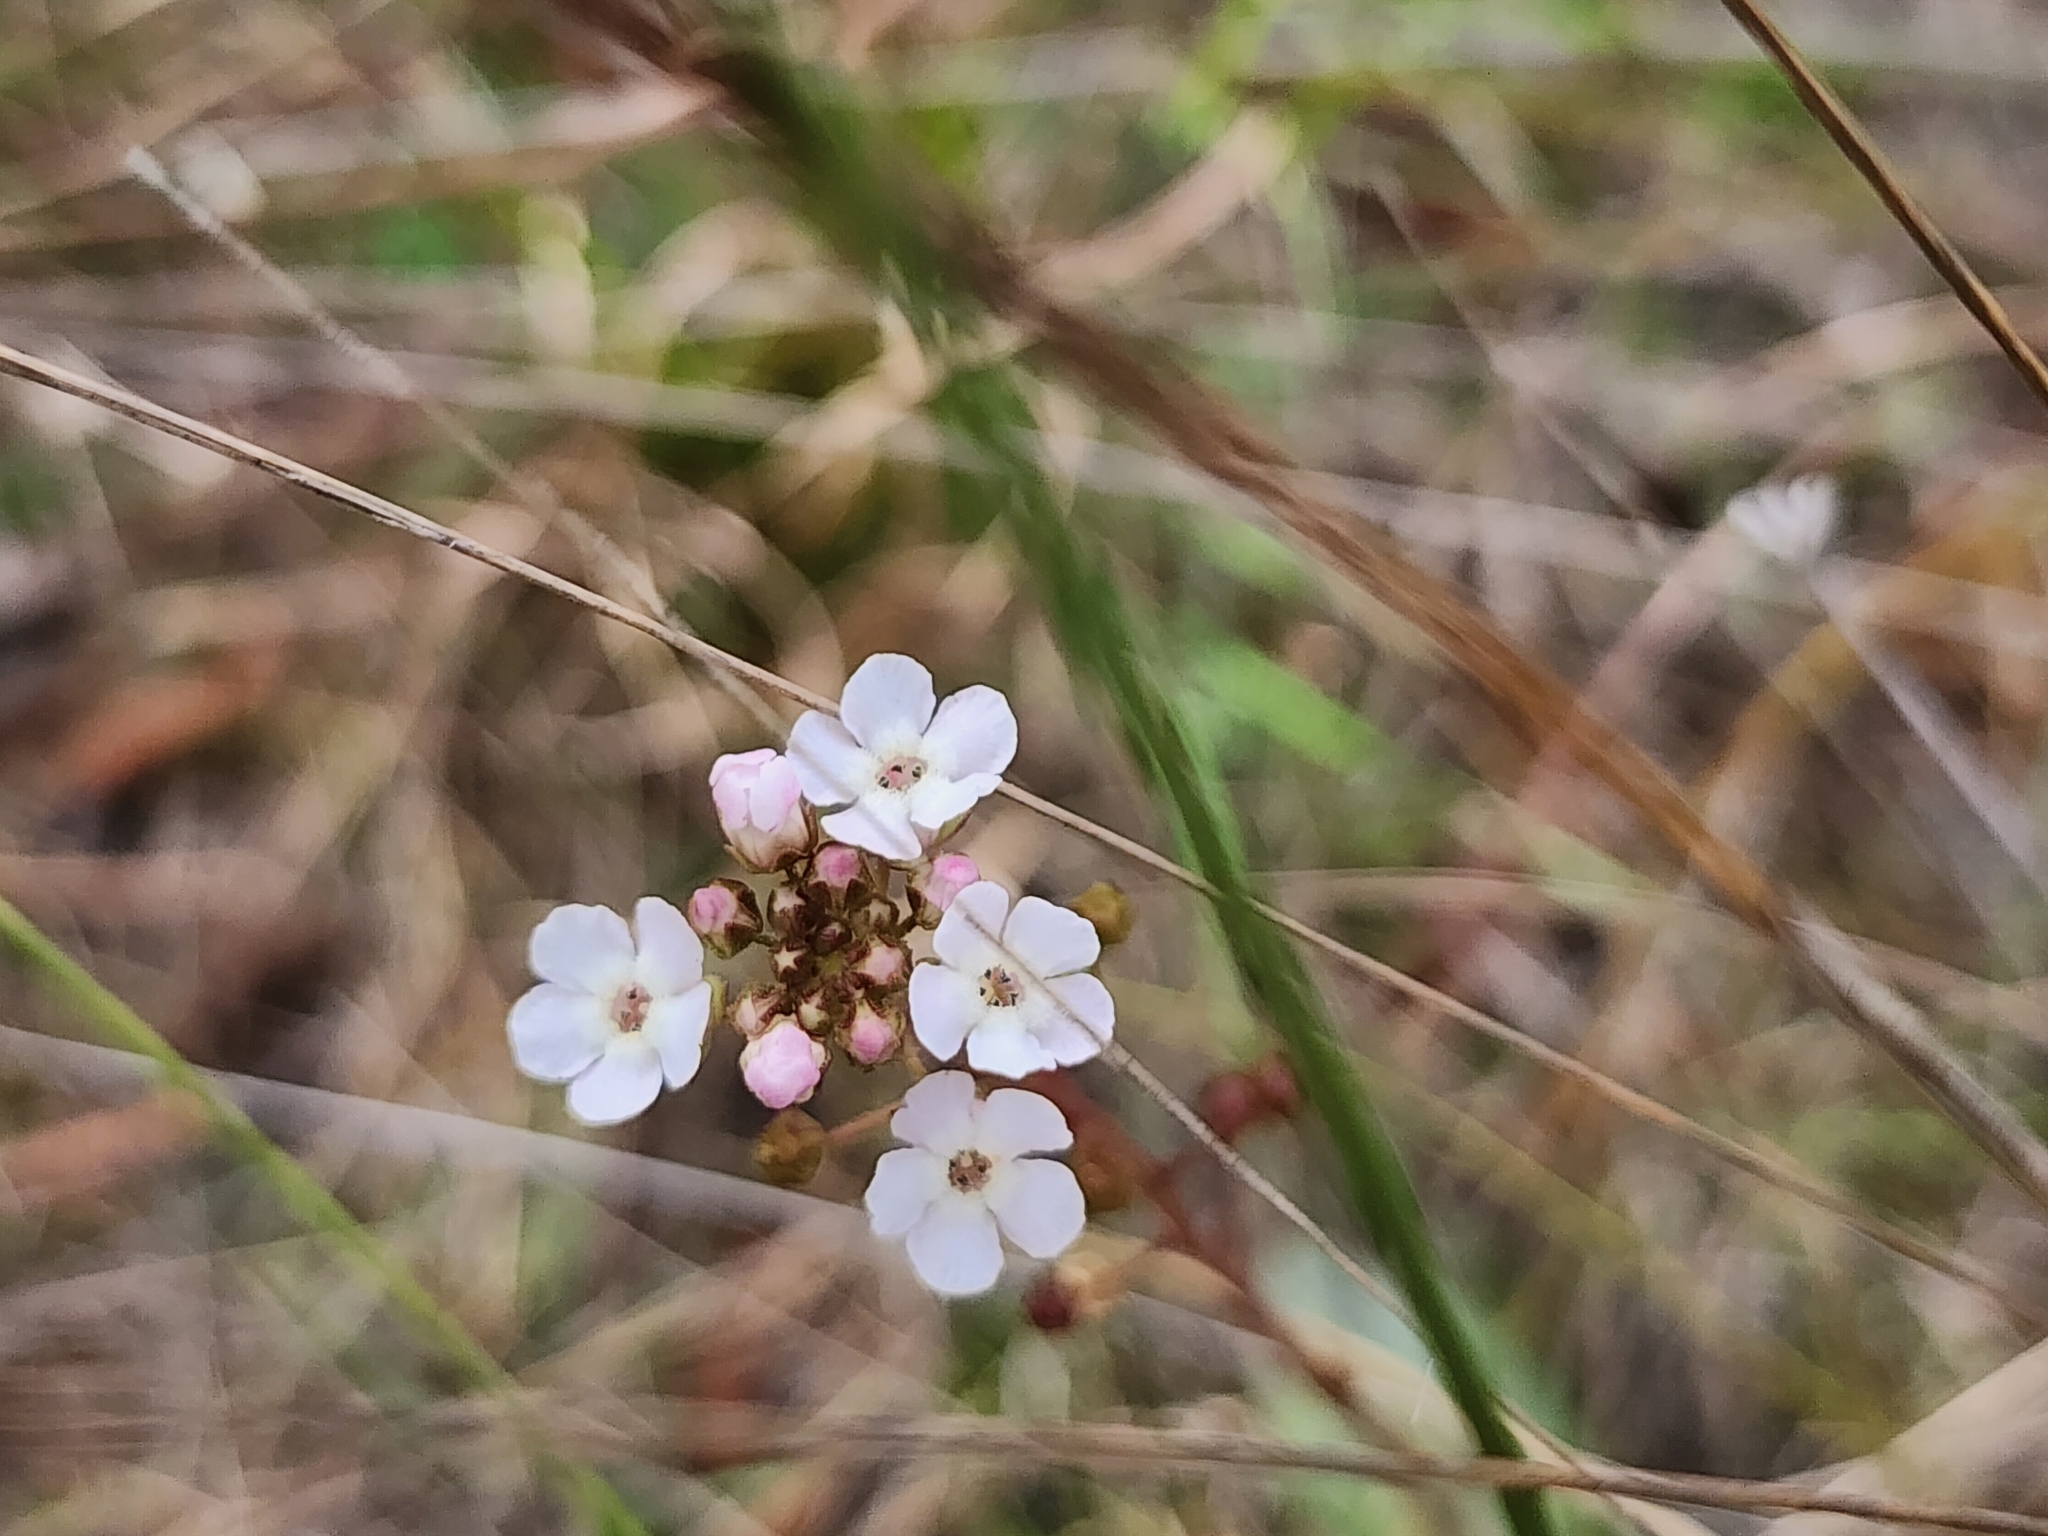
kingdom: Plantae
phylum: Tracheophyta
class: Magnoliopsida
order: Ericales
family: Primulaceae
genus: Samolus
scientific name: Samolus ebracteatus
